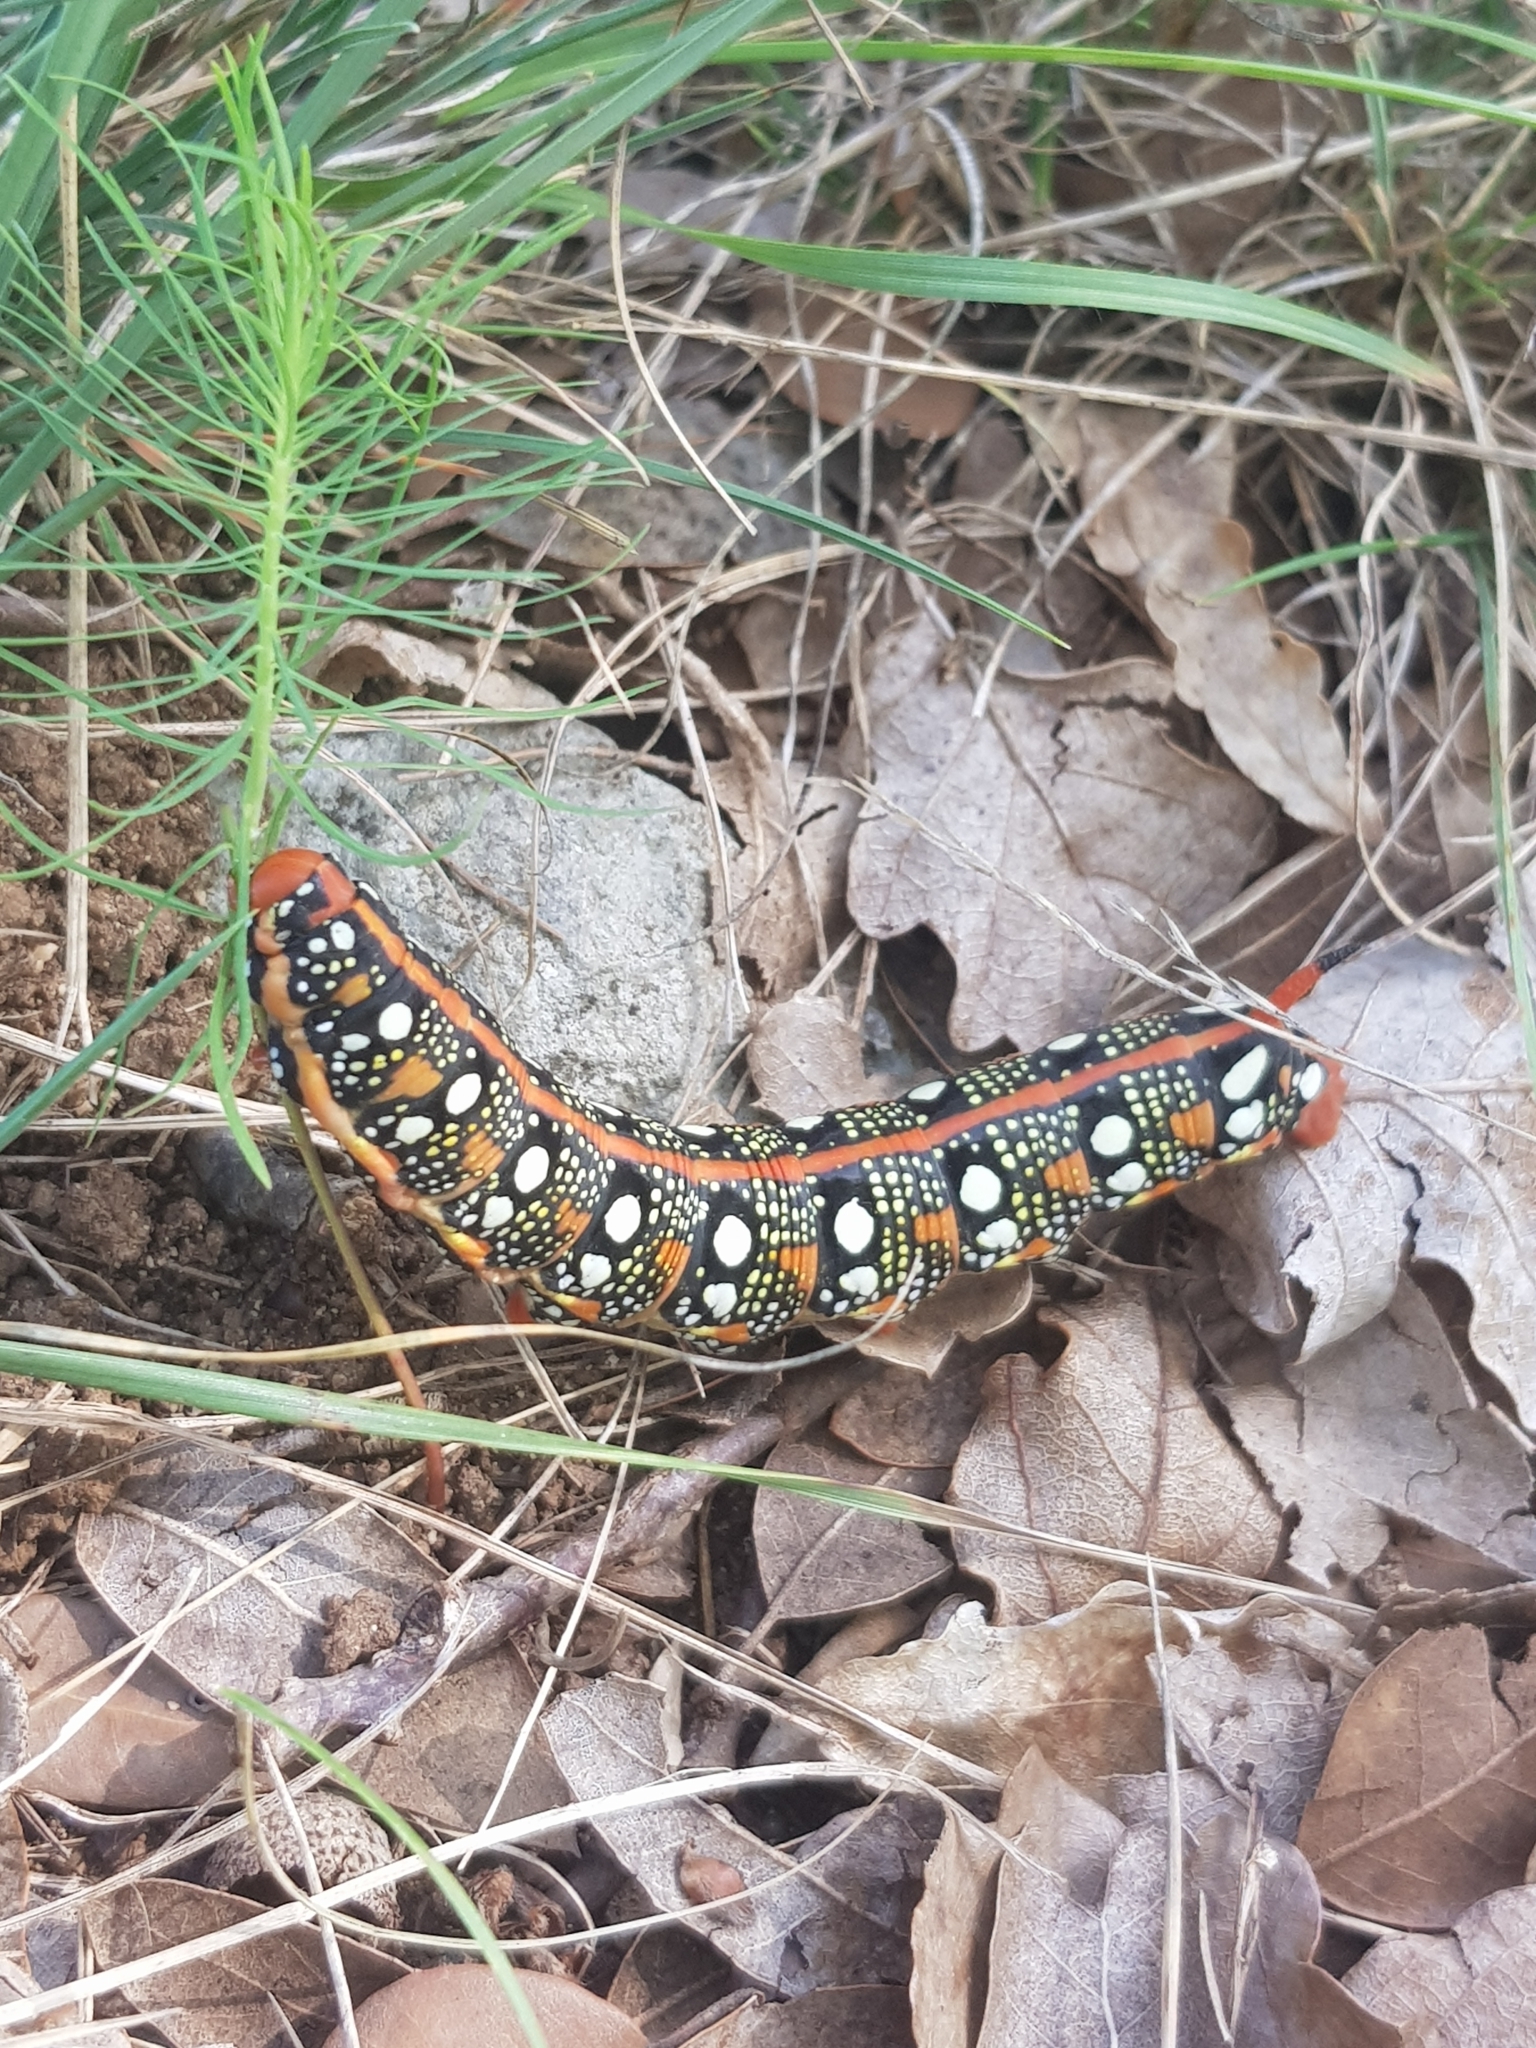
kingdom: Animalia
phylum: Arthropoda
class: Insecta
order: Lepidoptera
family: Sphingidae
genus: Hyles
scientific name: Hyles euphorbiae
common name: Spurge hawk-moth
